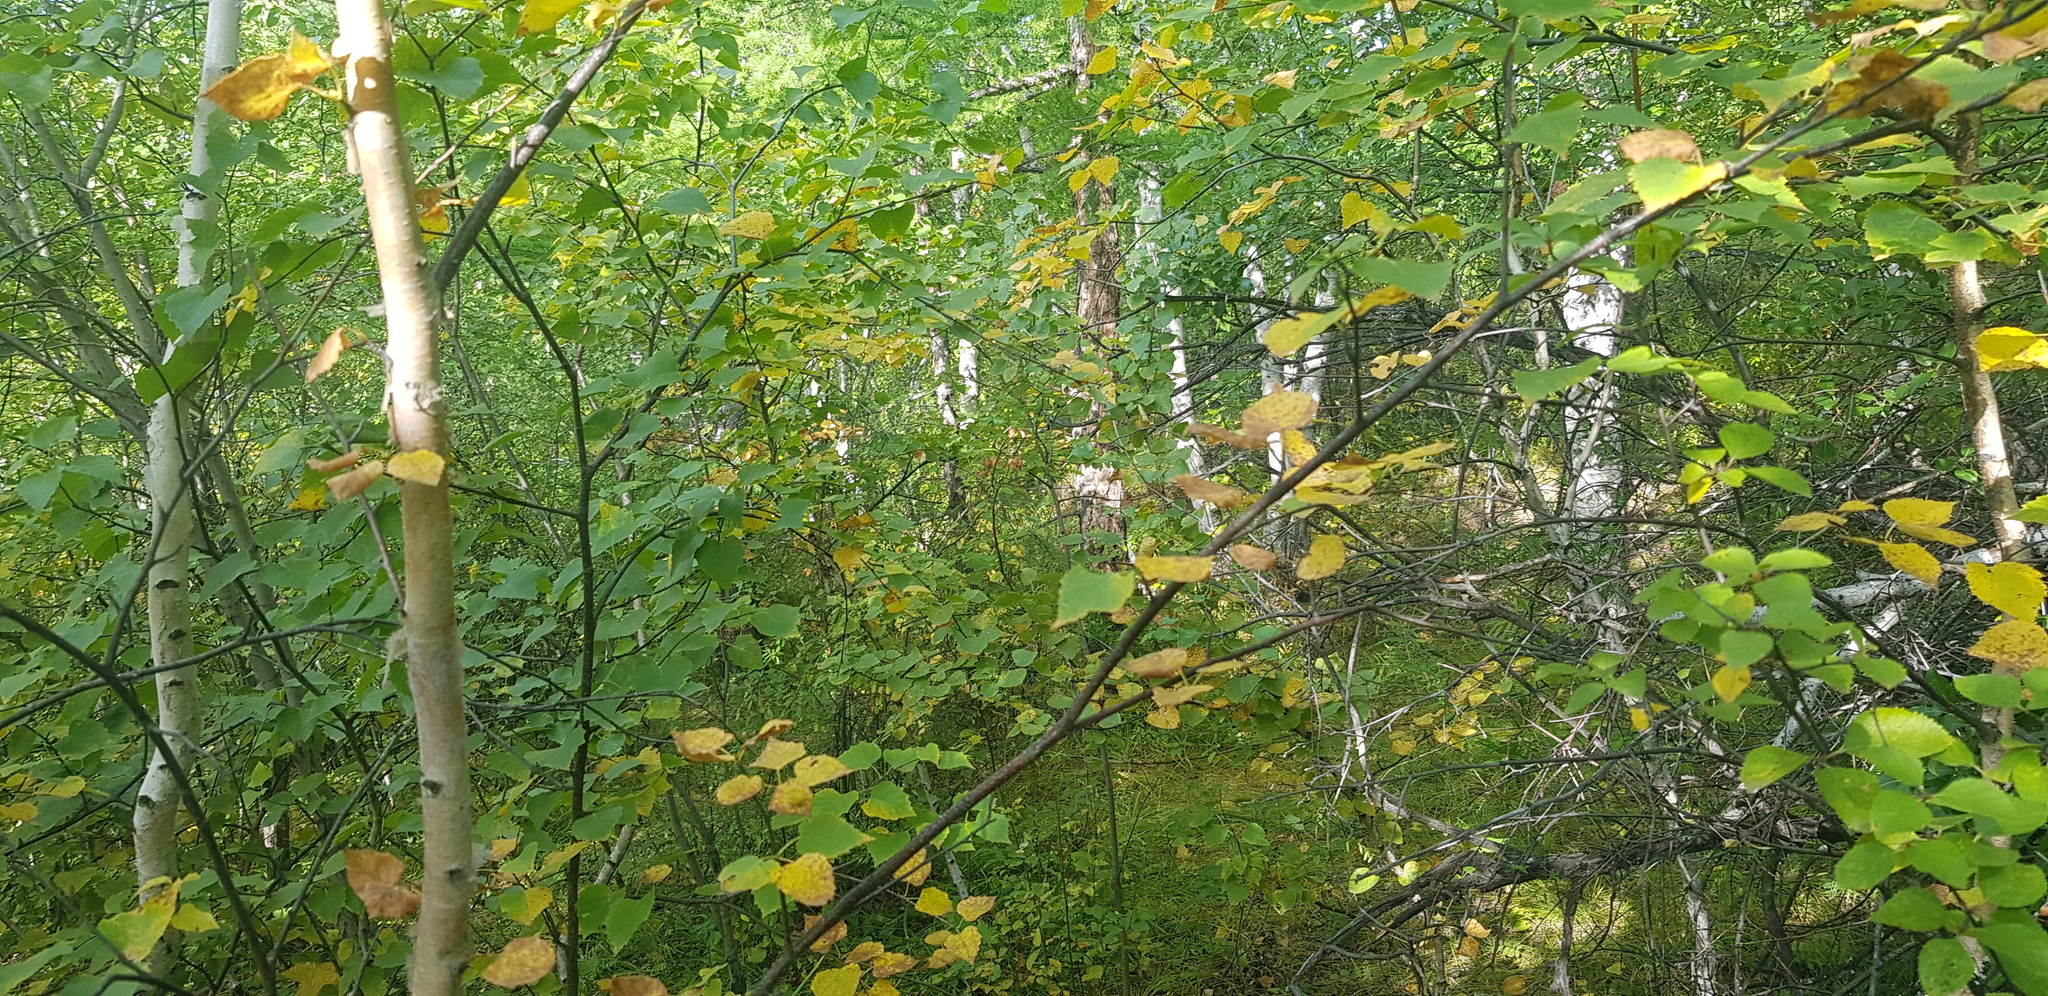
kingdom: Plantae
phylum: Tracheophyta
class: Magnoliopsida
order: Fagales
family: Betulaceae
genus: Betula
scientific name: Betula pendula
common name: Silver birch
